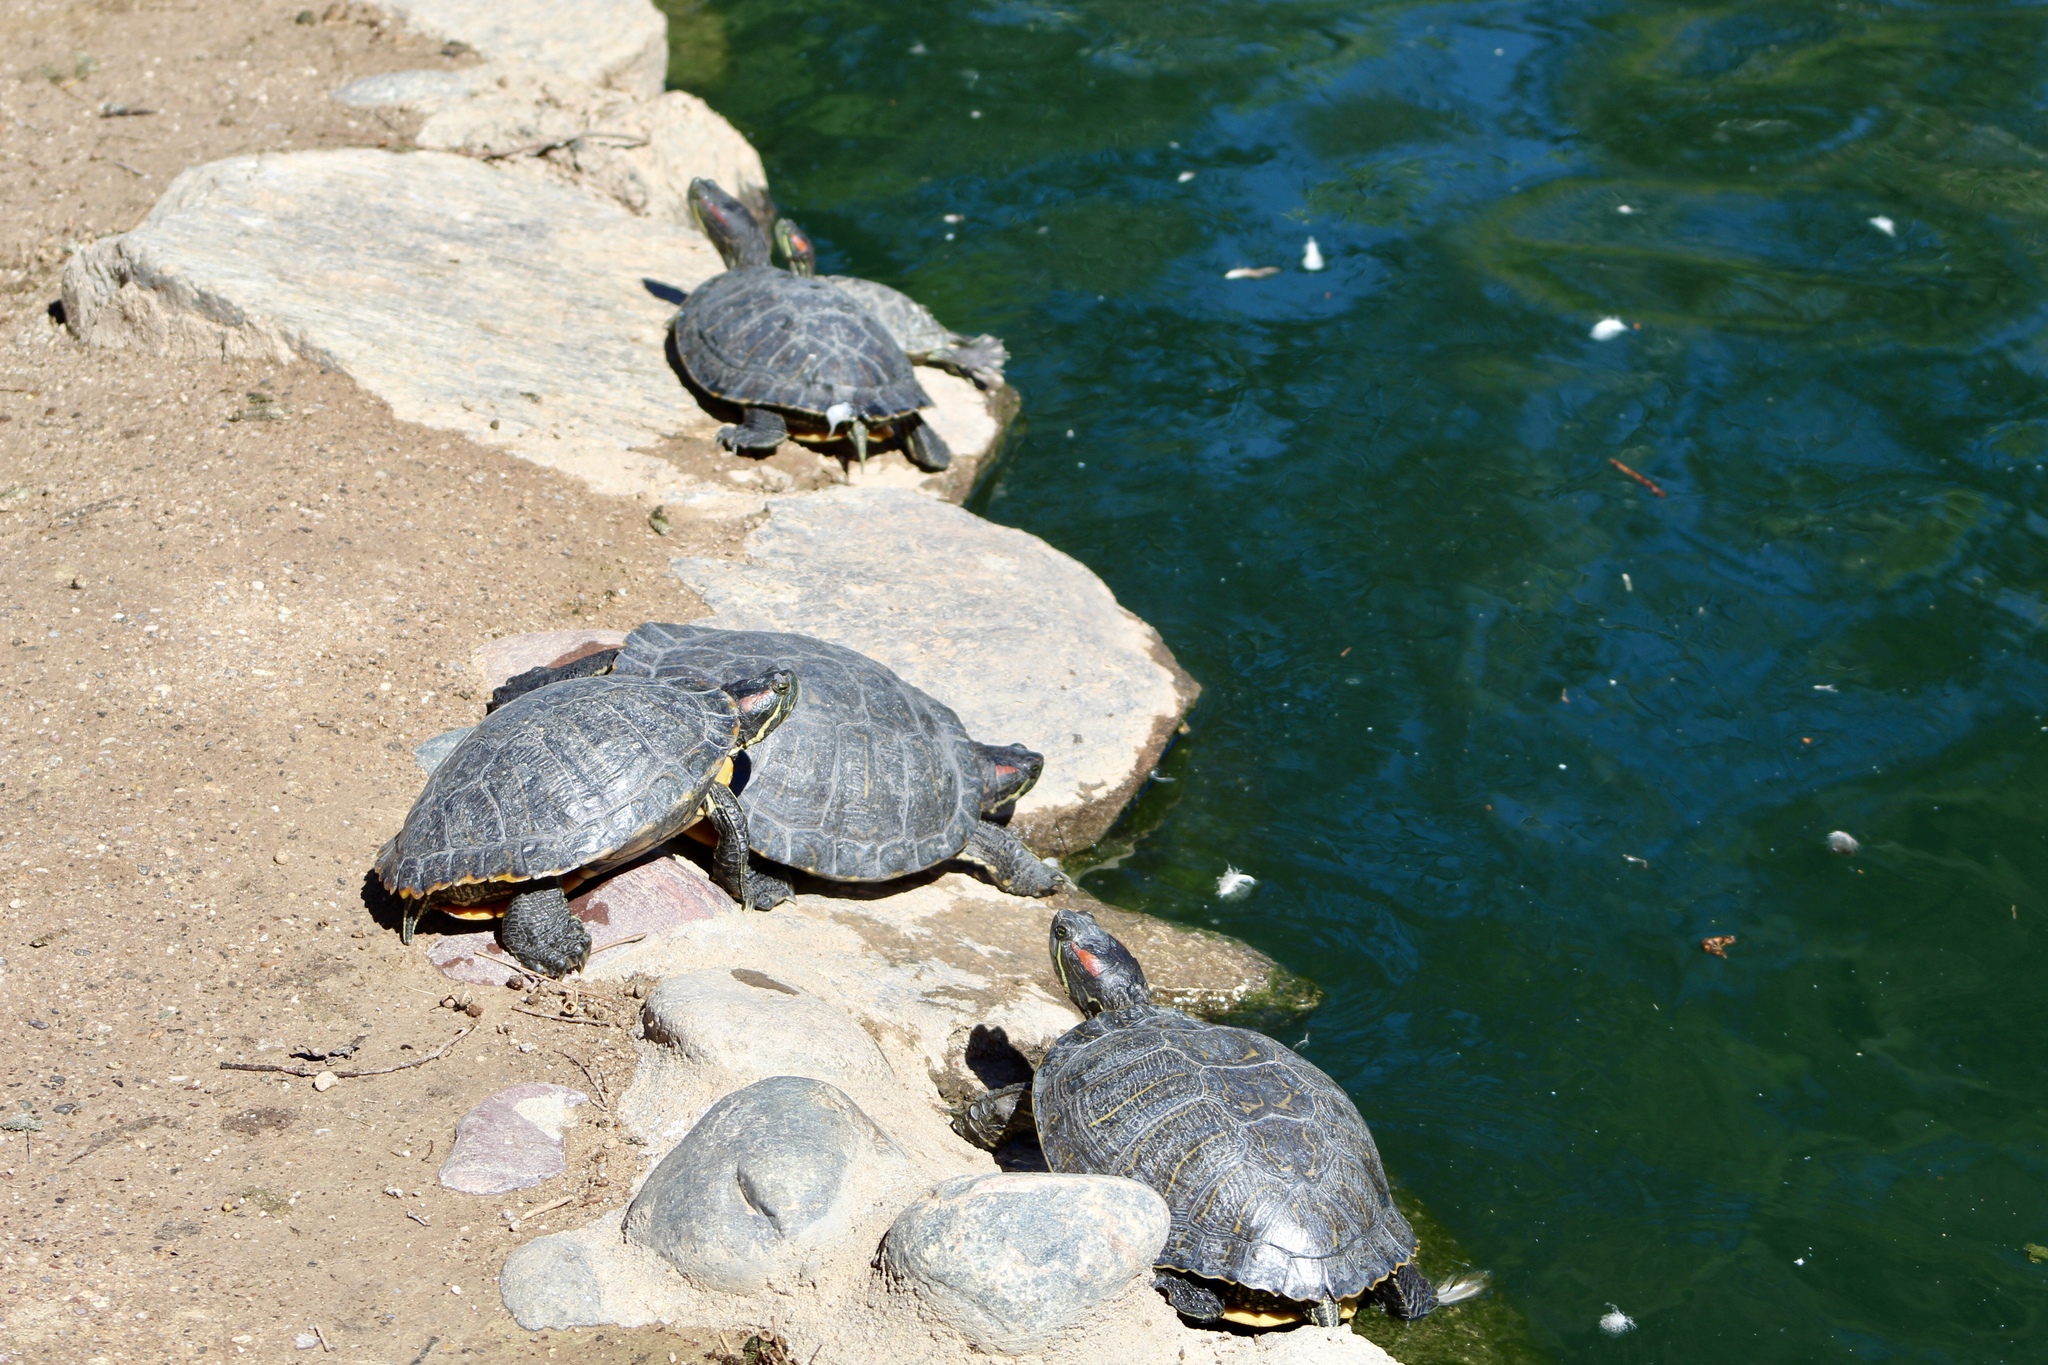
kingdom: Animalia
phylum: Chordata
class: Testudines
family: Emydidae
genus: Trachemys
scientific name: Trachemys scripta
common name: Slider
